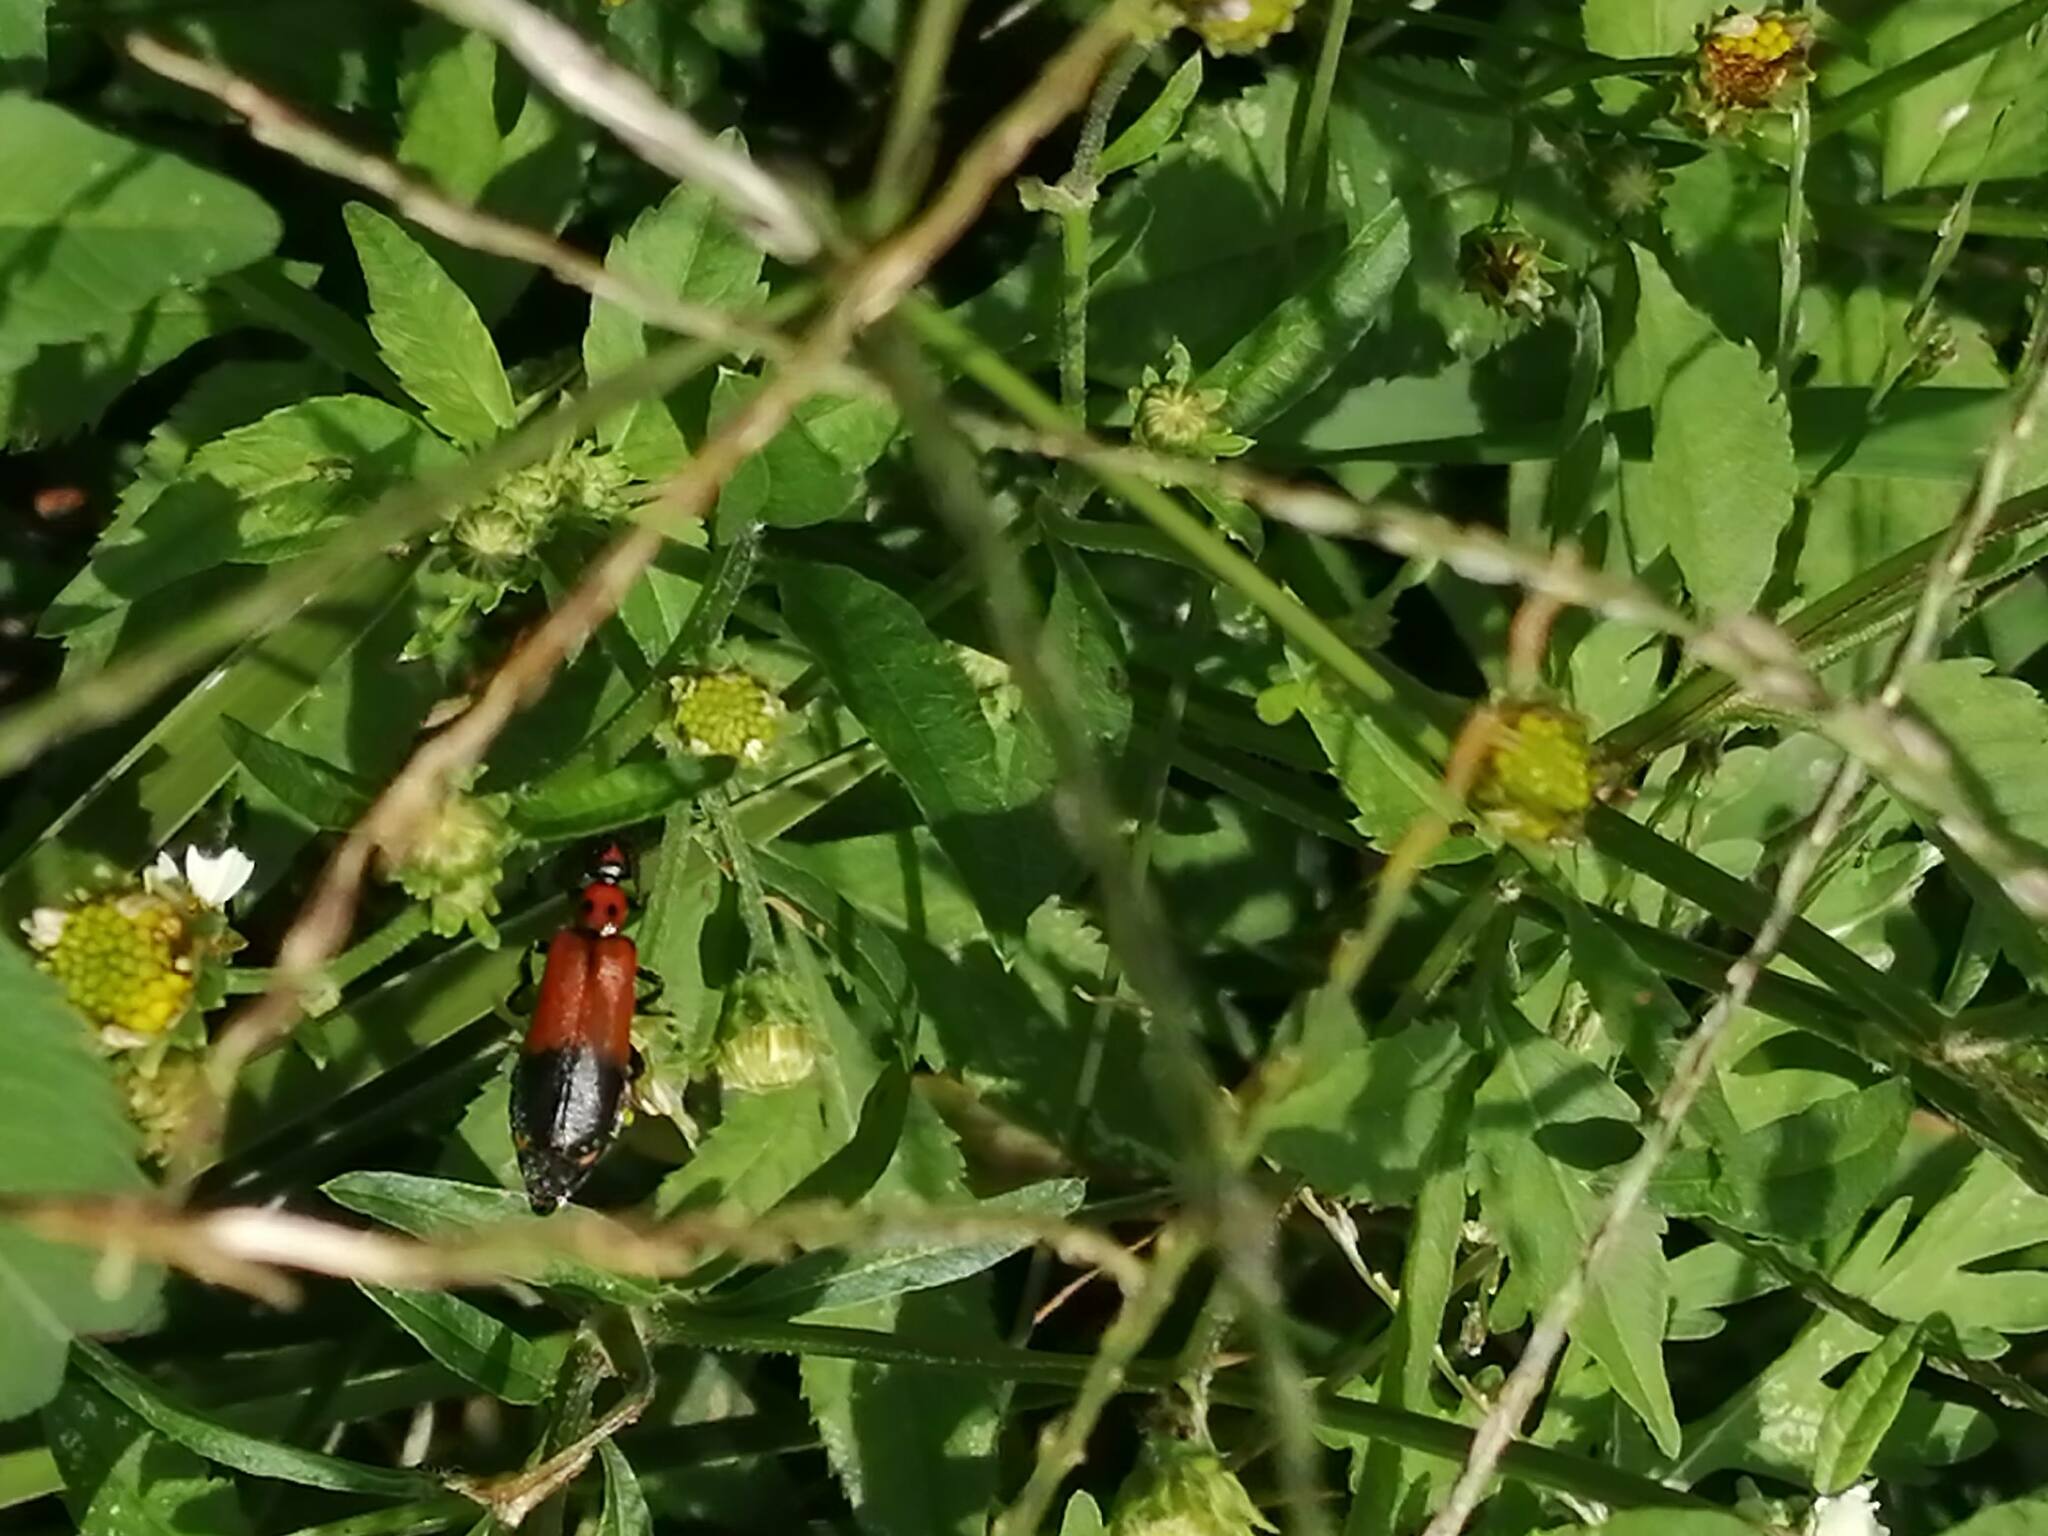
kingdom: Animalia
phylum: Arthropoda
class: Insecta
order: Coleoptera
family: Meloidae
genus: Lytta
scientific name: Lytta proteus
